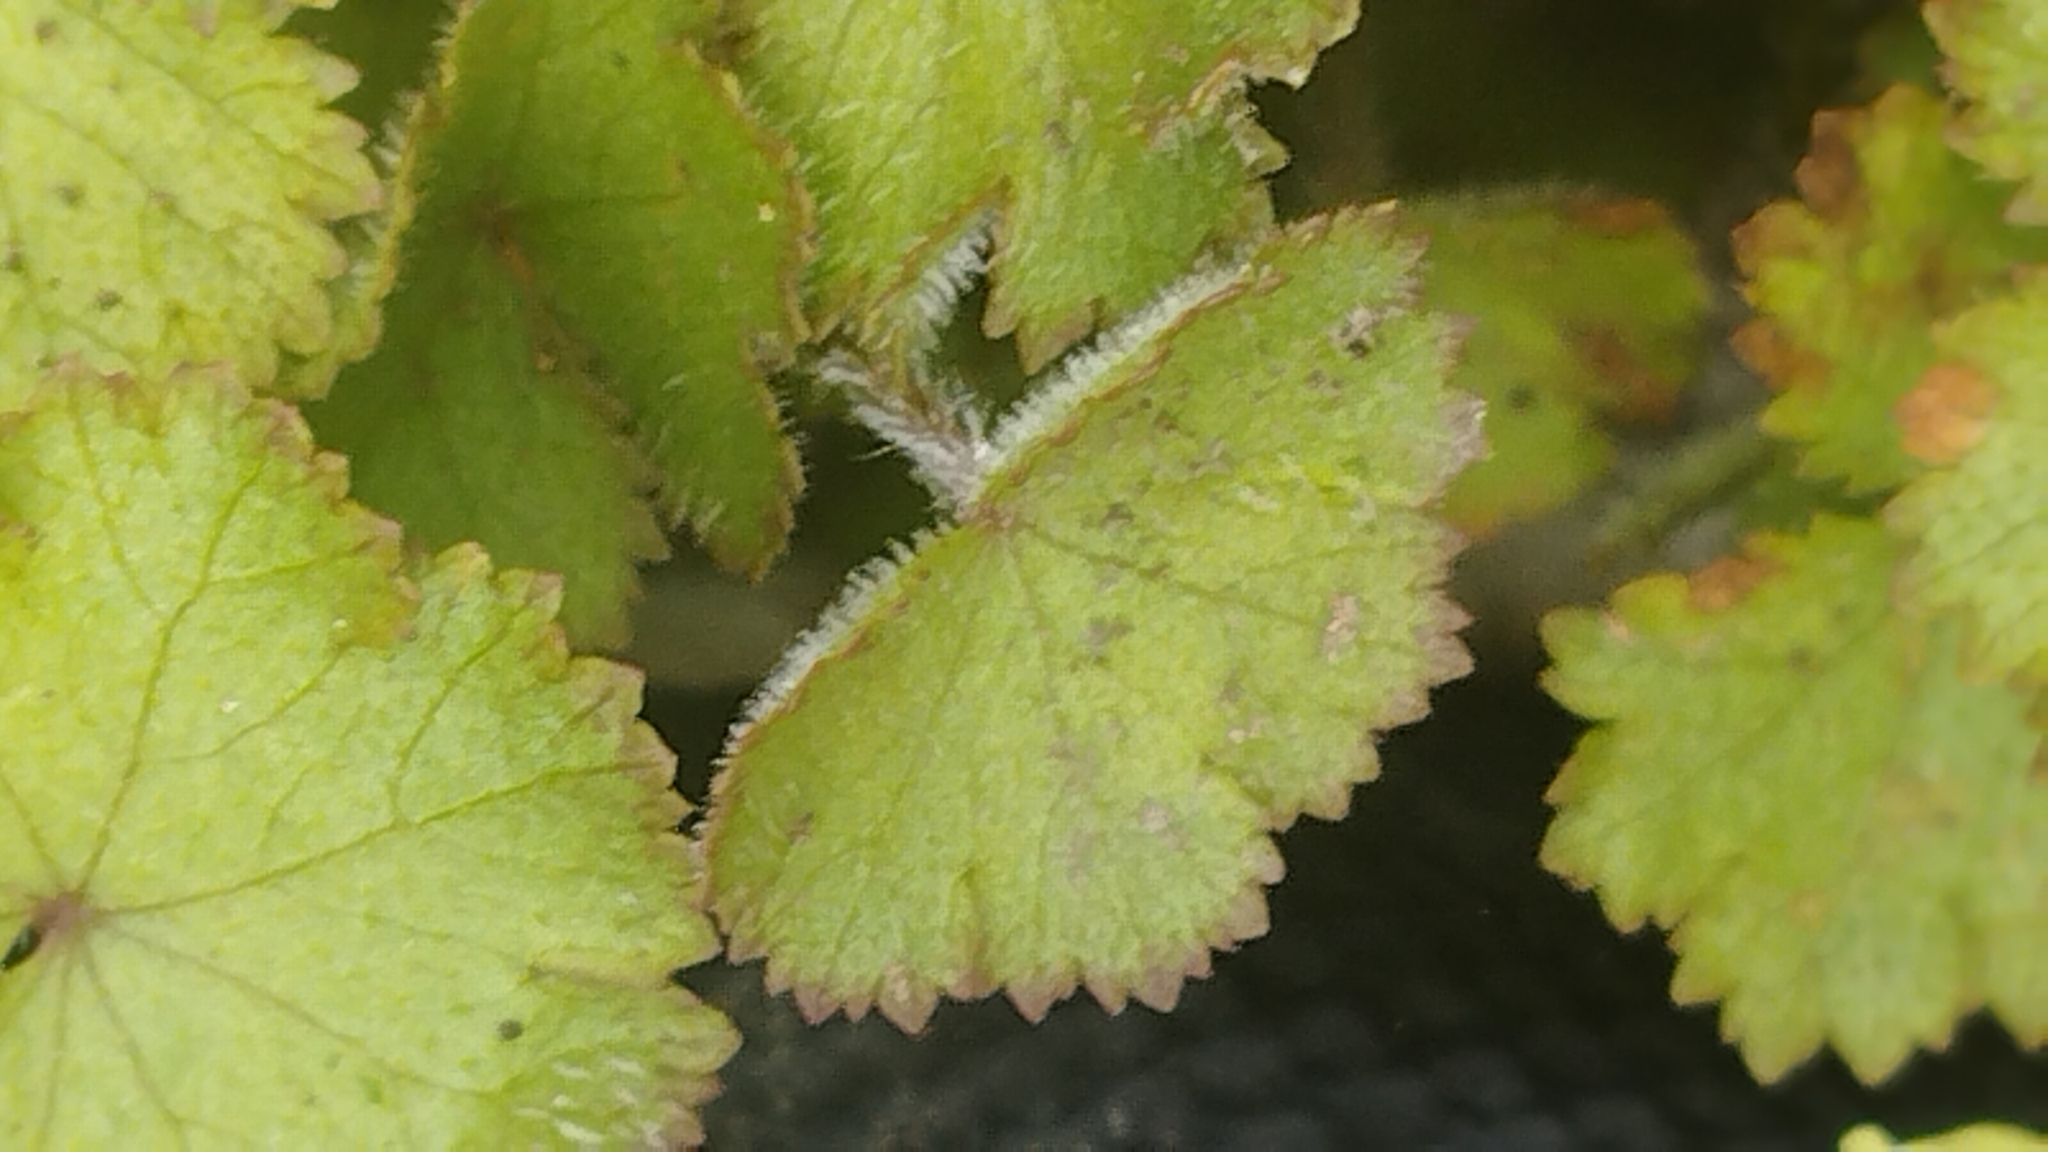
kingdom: Plantae
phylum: Tracheophyta
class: Magnoliopsida
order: Apiales
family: Araliaceae
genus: Hydrocotyle
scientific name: Hydrocotyle moschata
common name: Hairy pennywort
